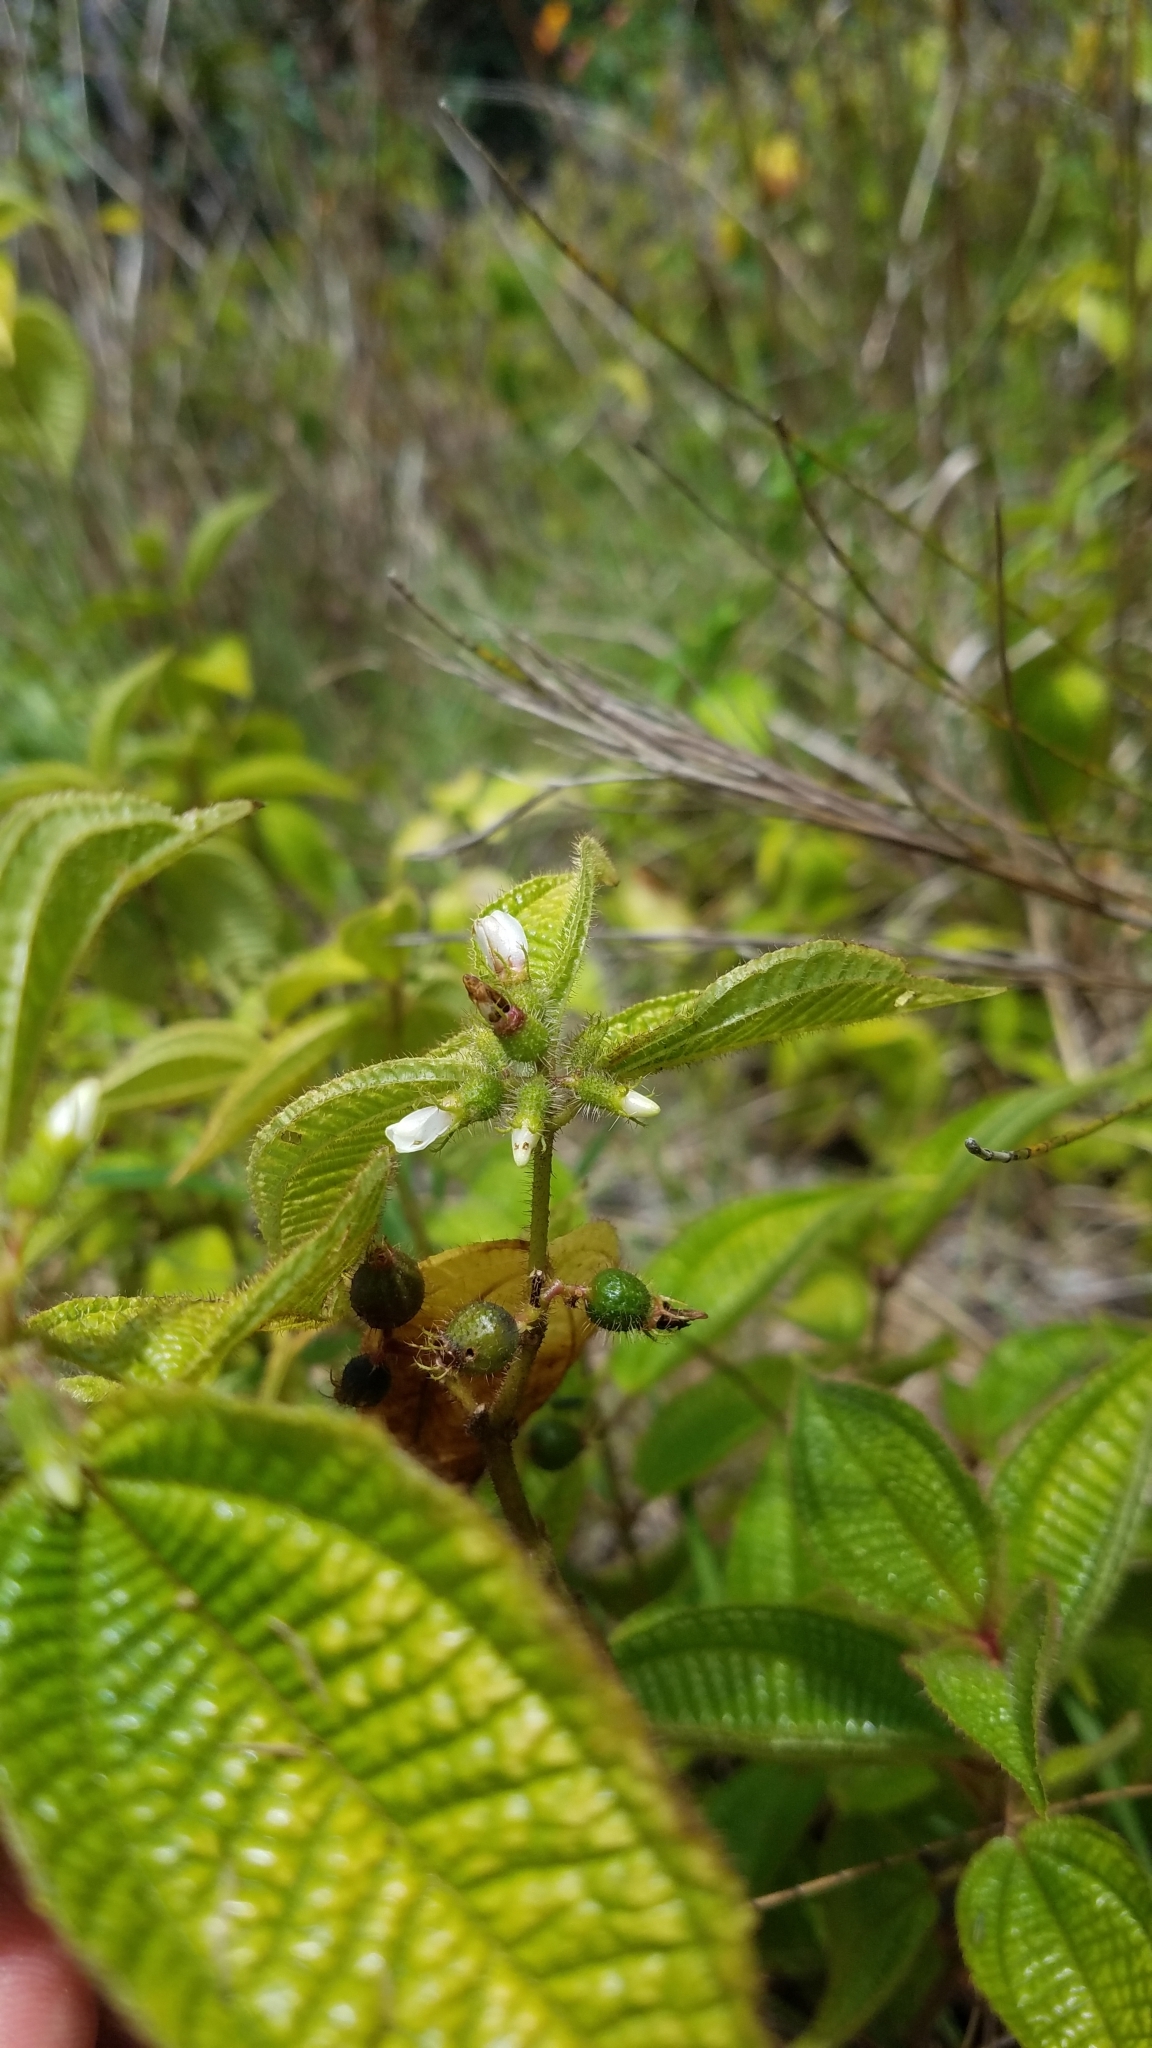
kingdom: Plantae
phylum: Tracheophyta
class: Magnoliopsida
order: Myrtales
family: Melastomataceae
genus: Miconia
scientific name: Miconia crenata
